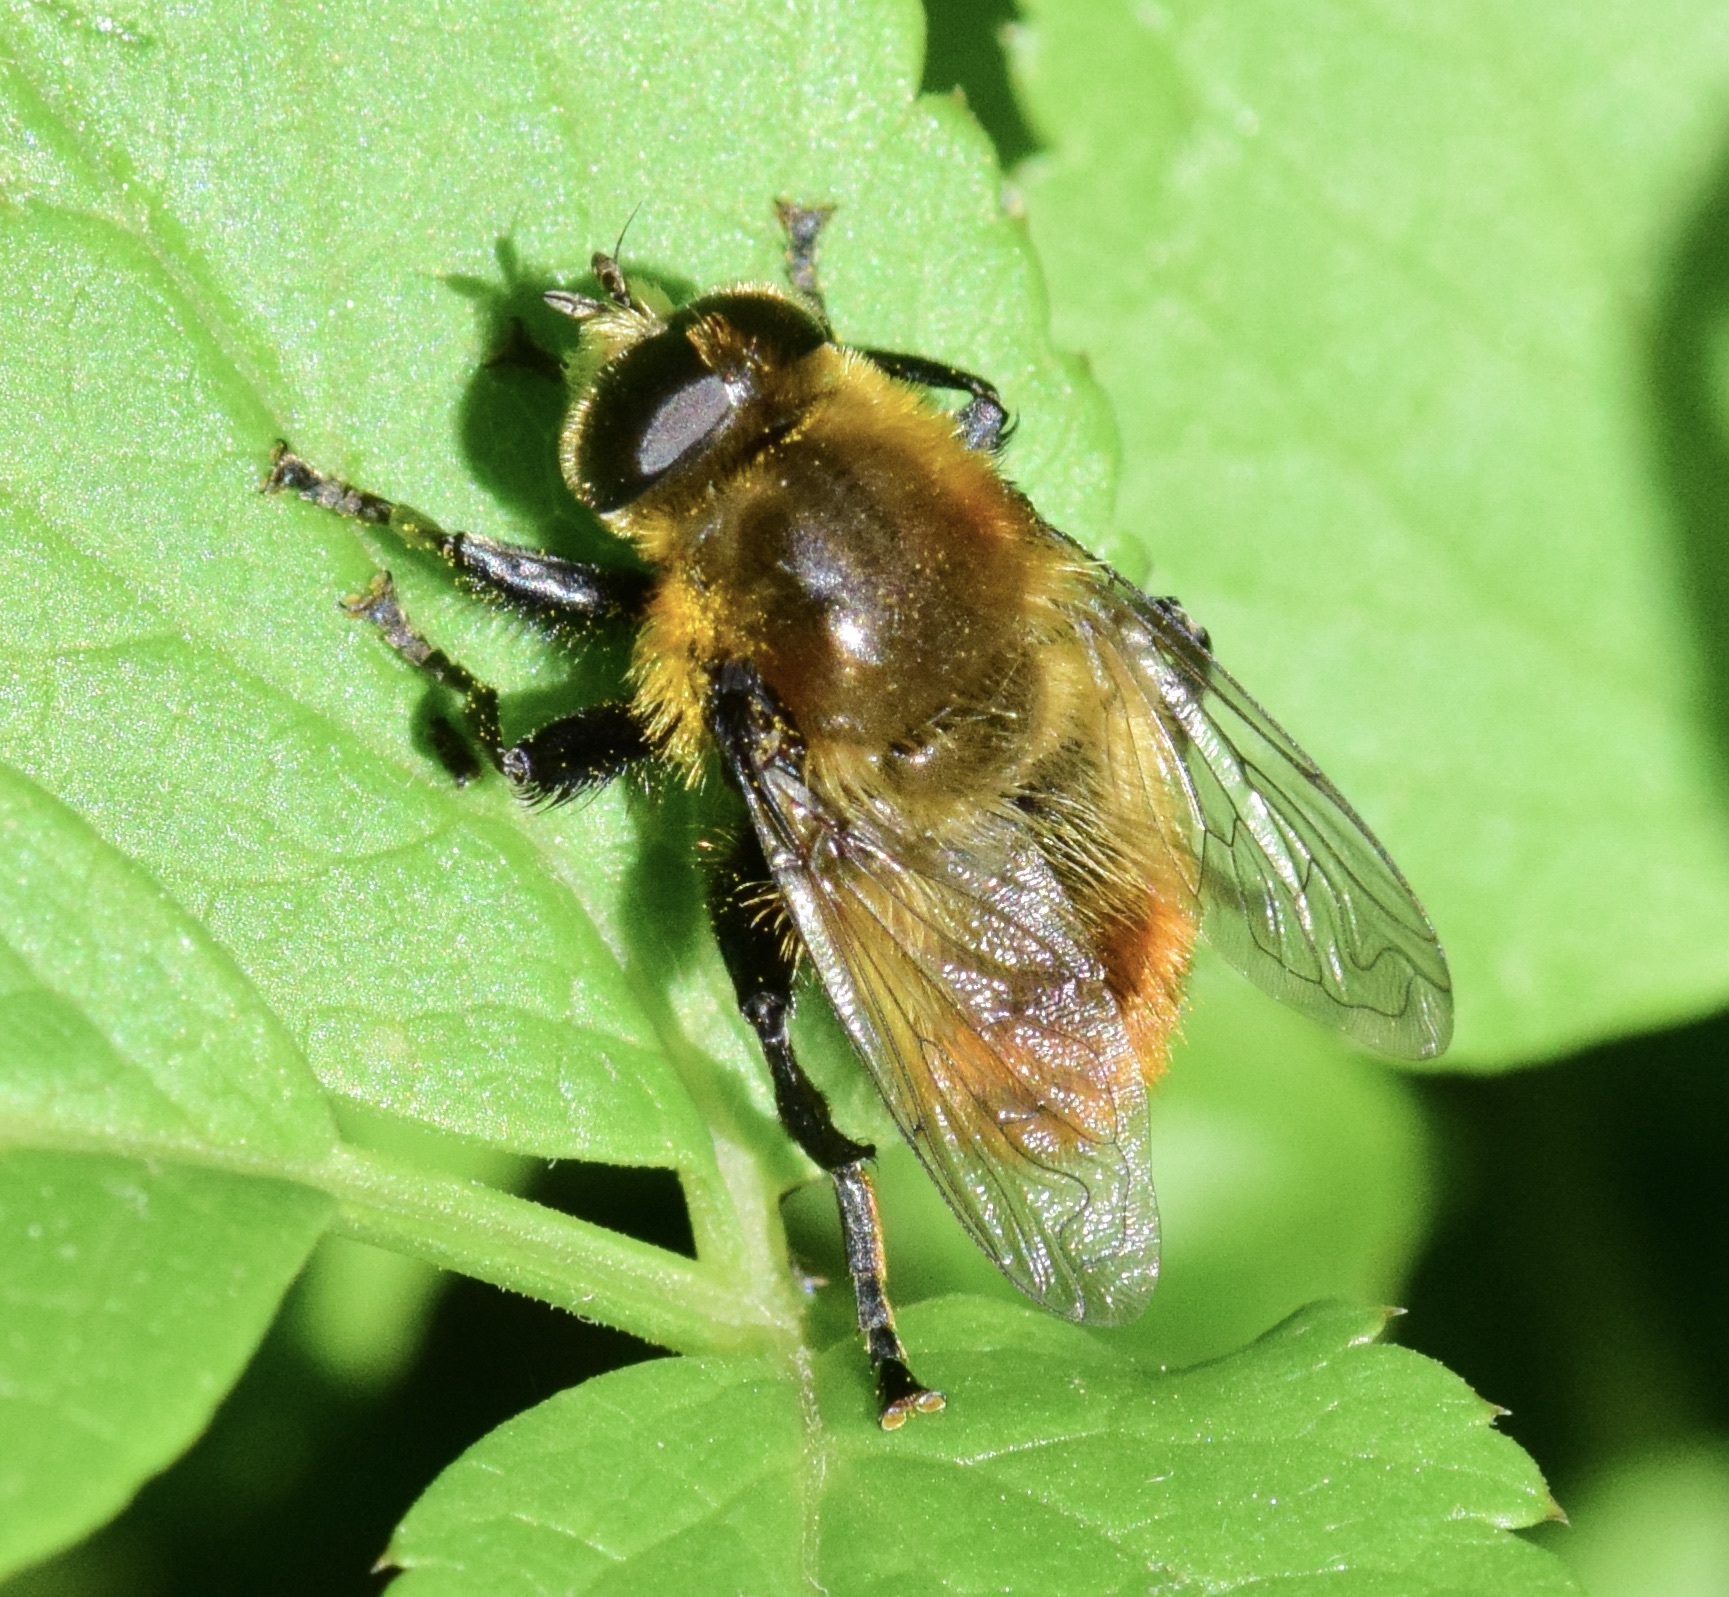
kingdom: Animalia
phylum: Arthropoda
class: Insecta
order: Diptera
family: Syrphidae
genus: Merodon
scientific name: Merodon equestris
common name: Greater bulb-fly
